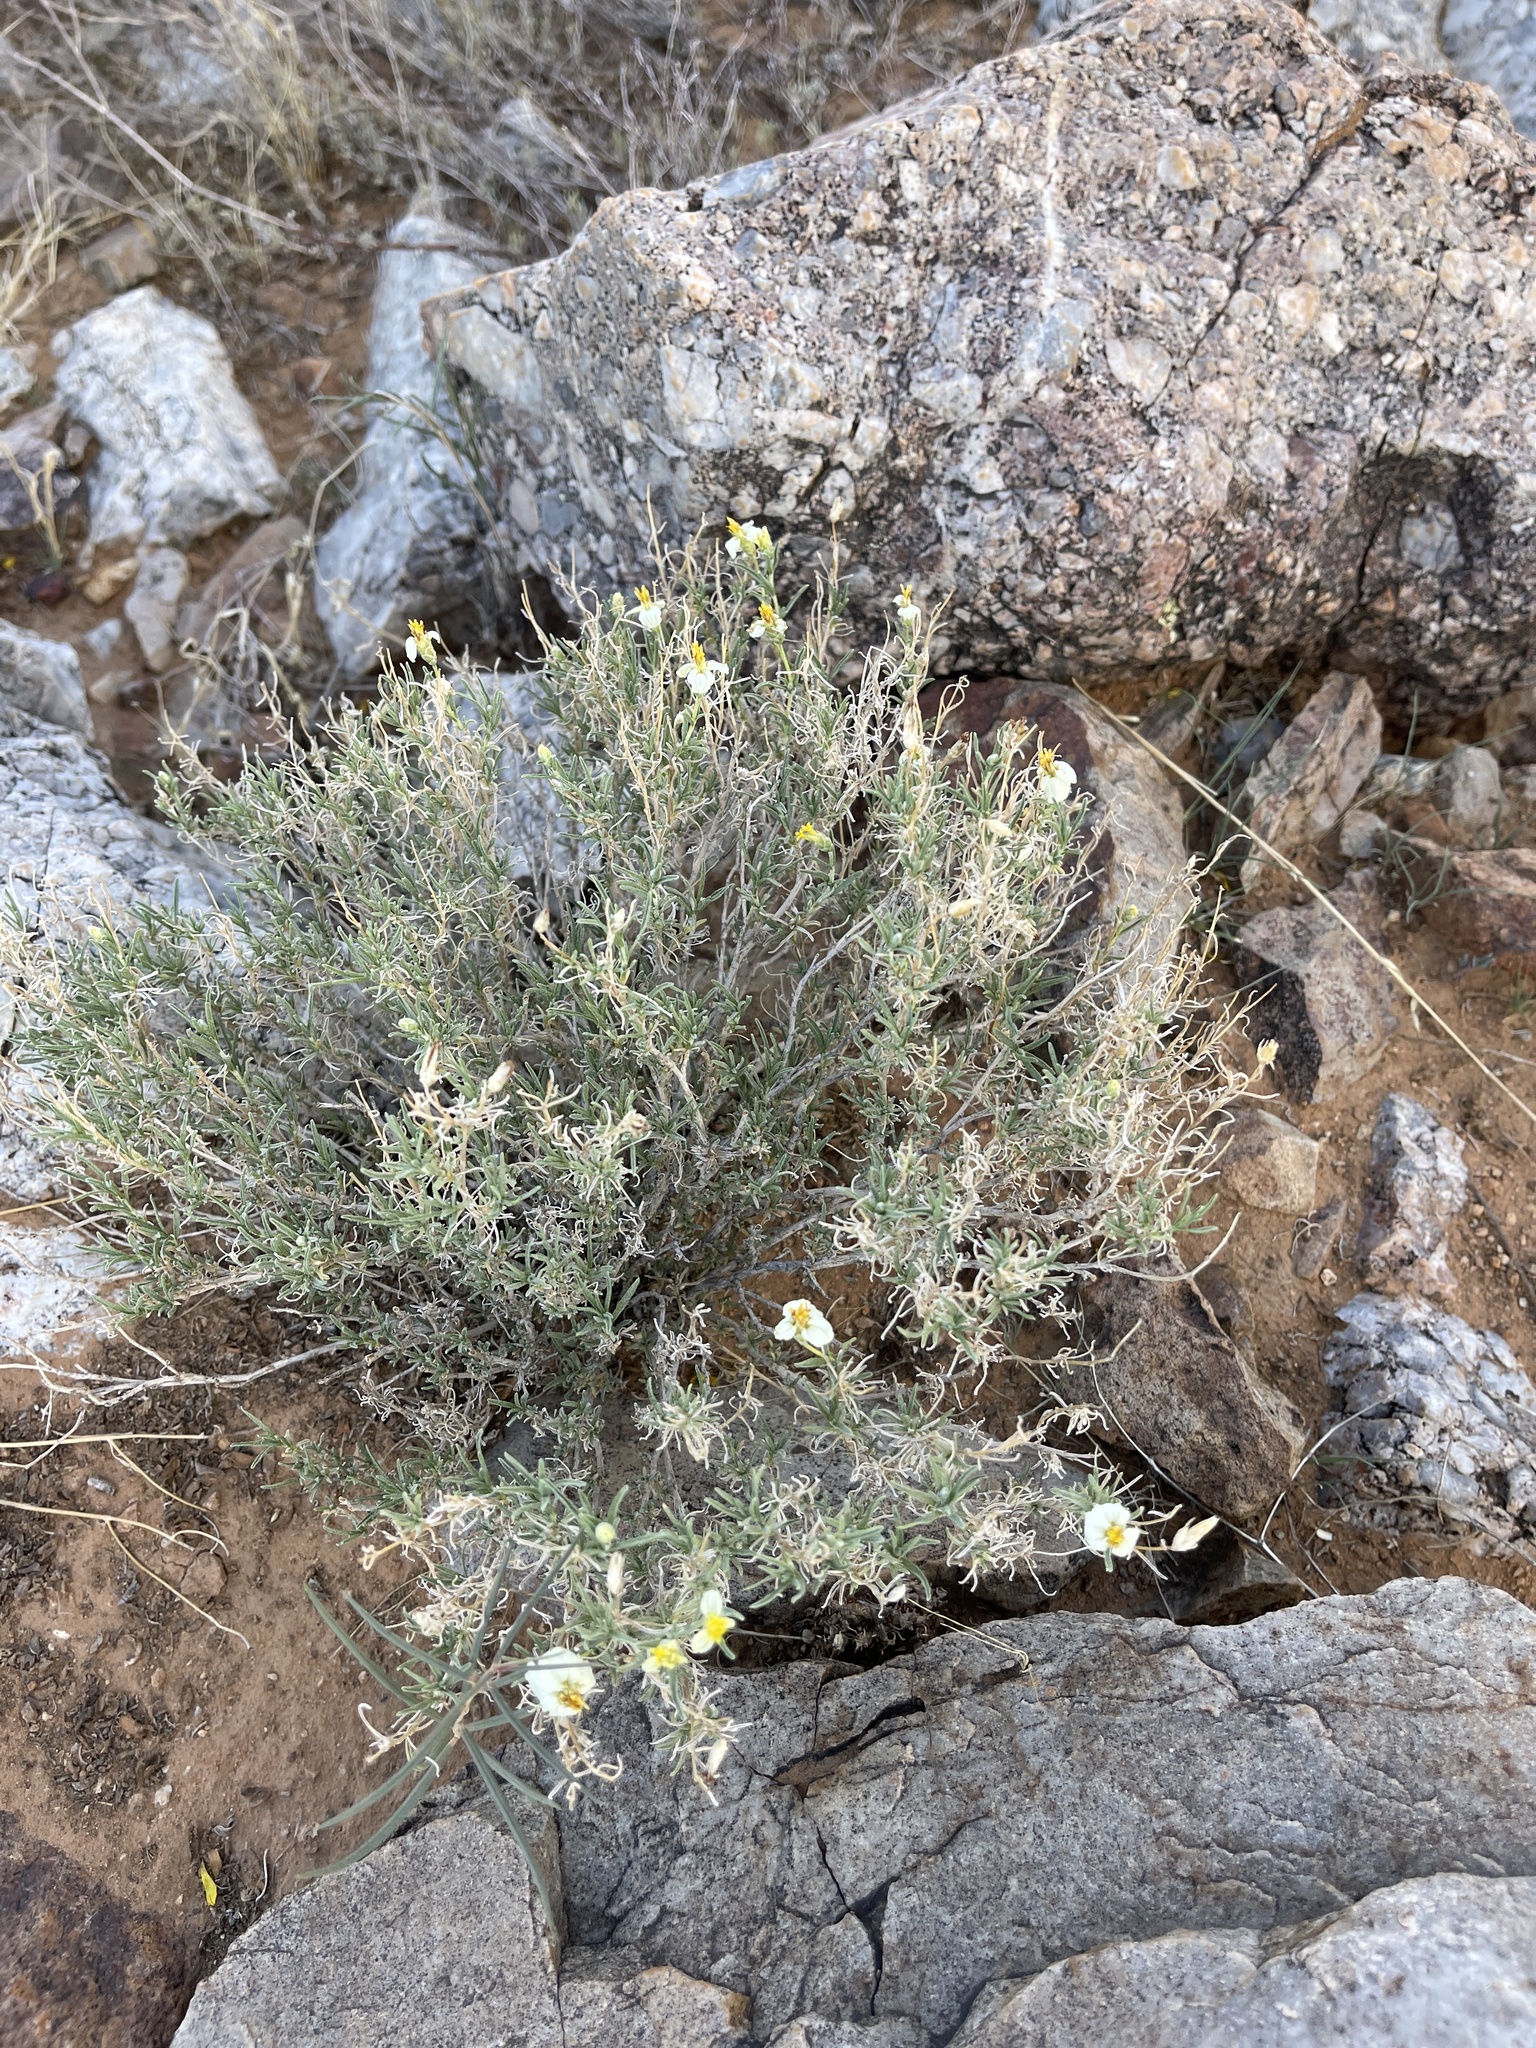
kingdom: Plantae
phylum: Tracheophyta
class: Magnoliopsida
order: Asterales
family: Asteraceae
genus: Zinnia
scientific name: Zinnia acerosa
